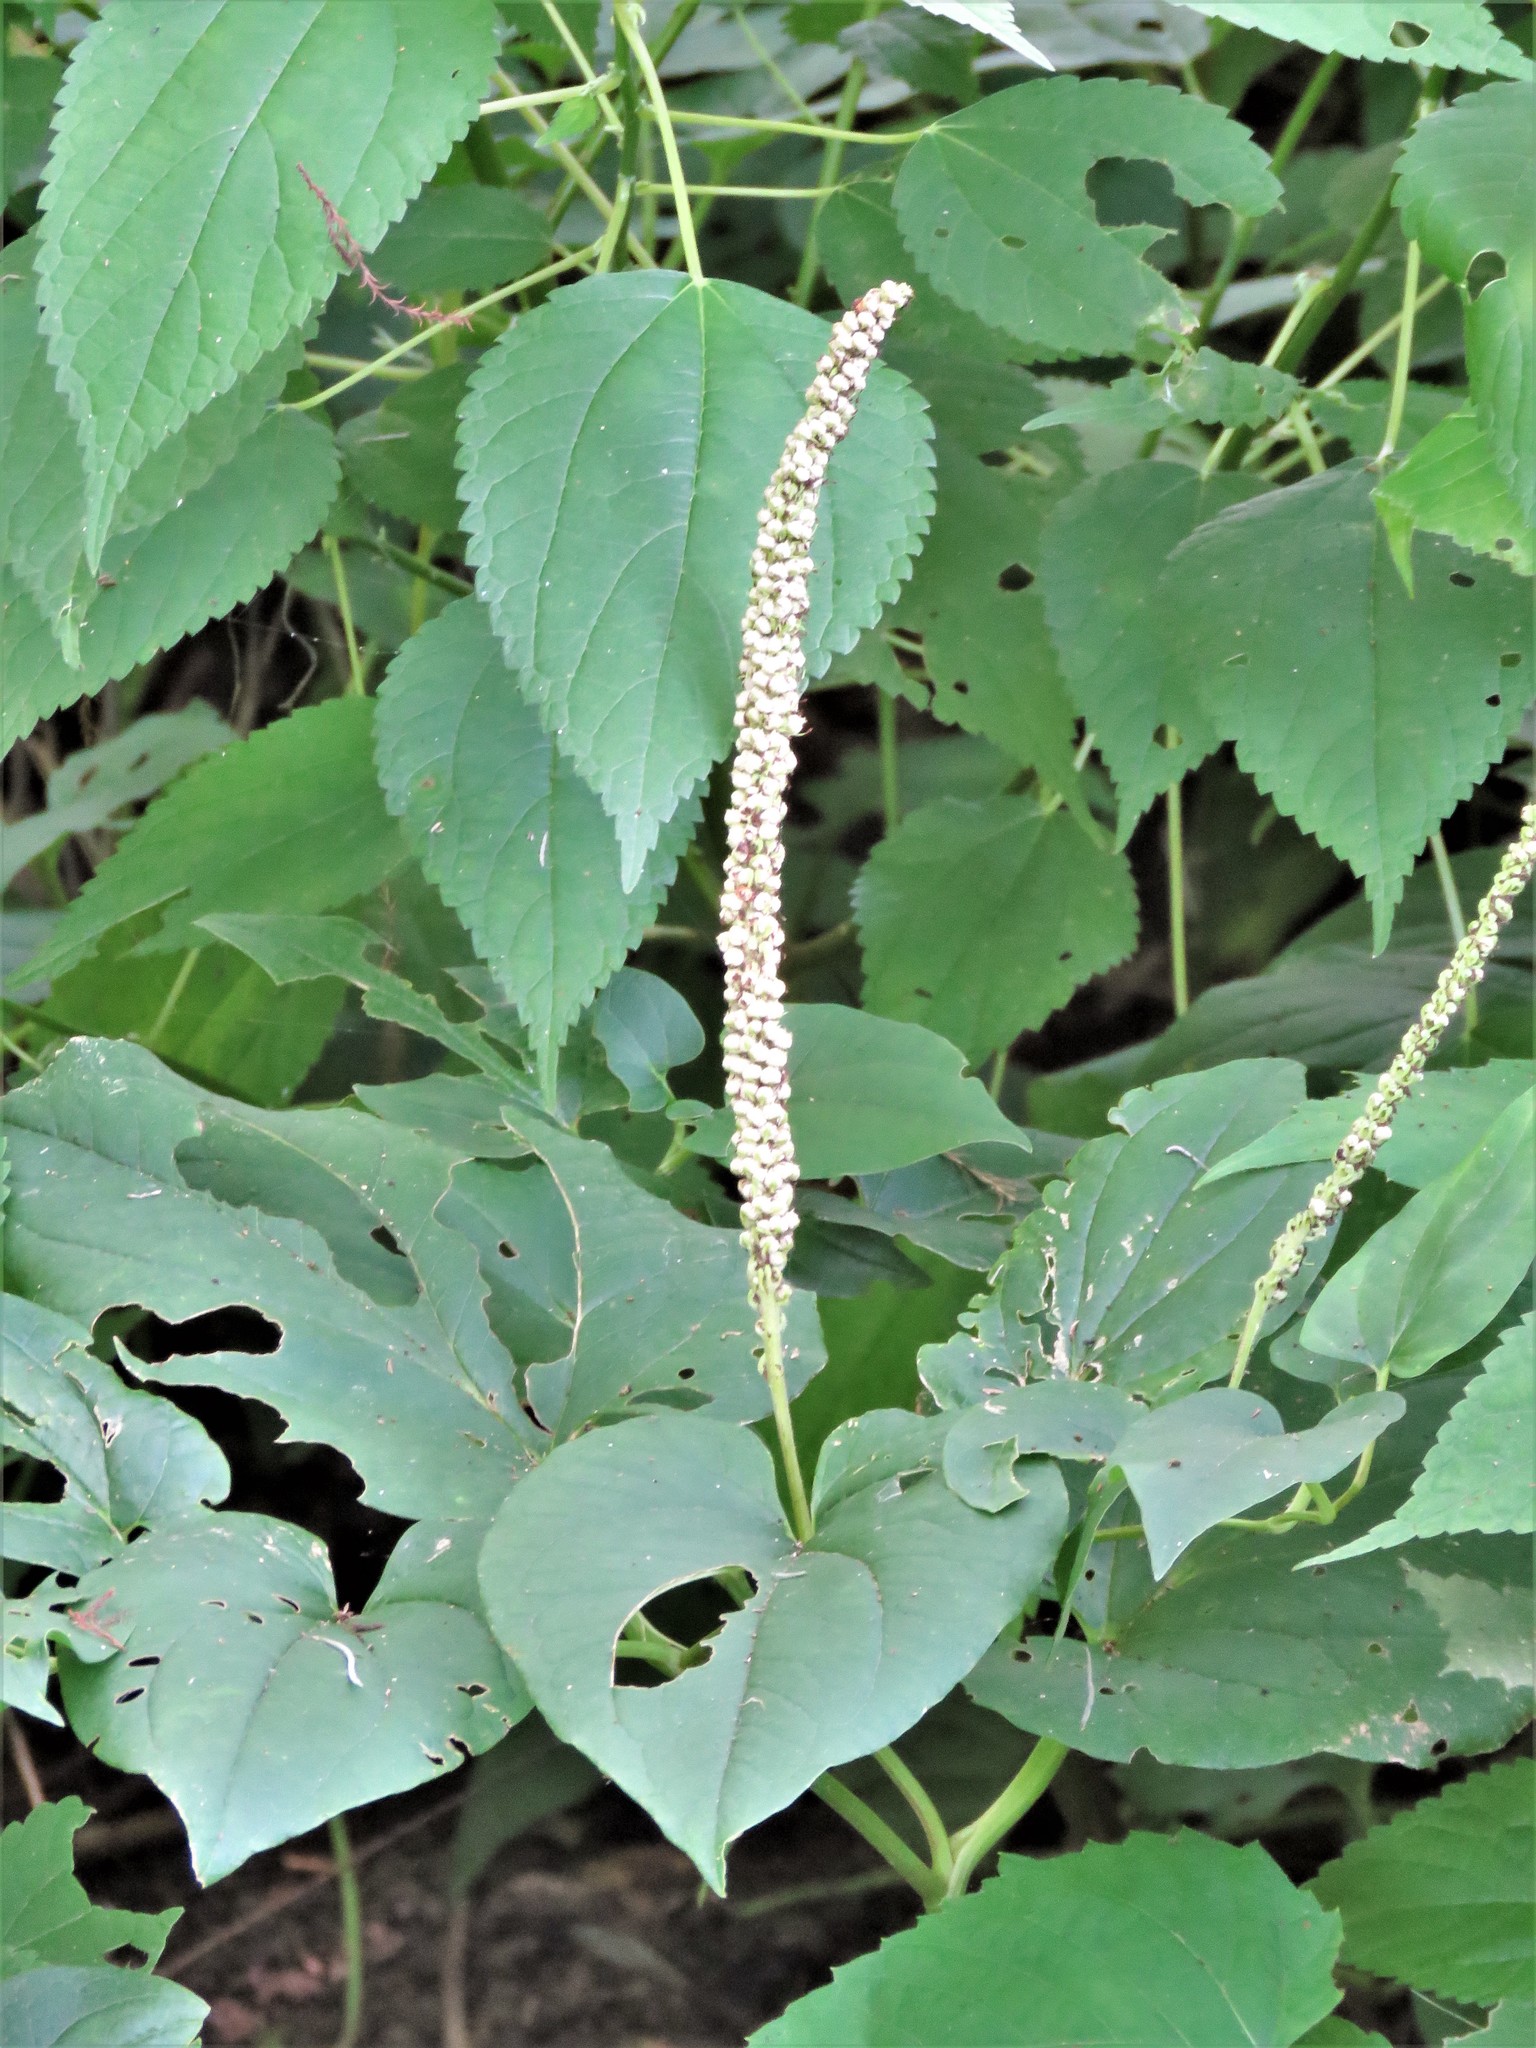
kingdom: Plantae
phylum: Tracheophyta
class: Magnoliopsida
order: Piperales
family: Saururaceae
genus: Saururus
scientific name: Saururus cernuus
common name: Lizard's-tail
